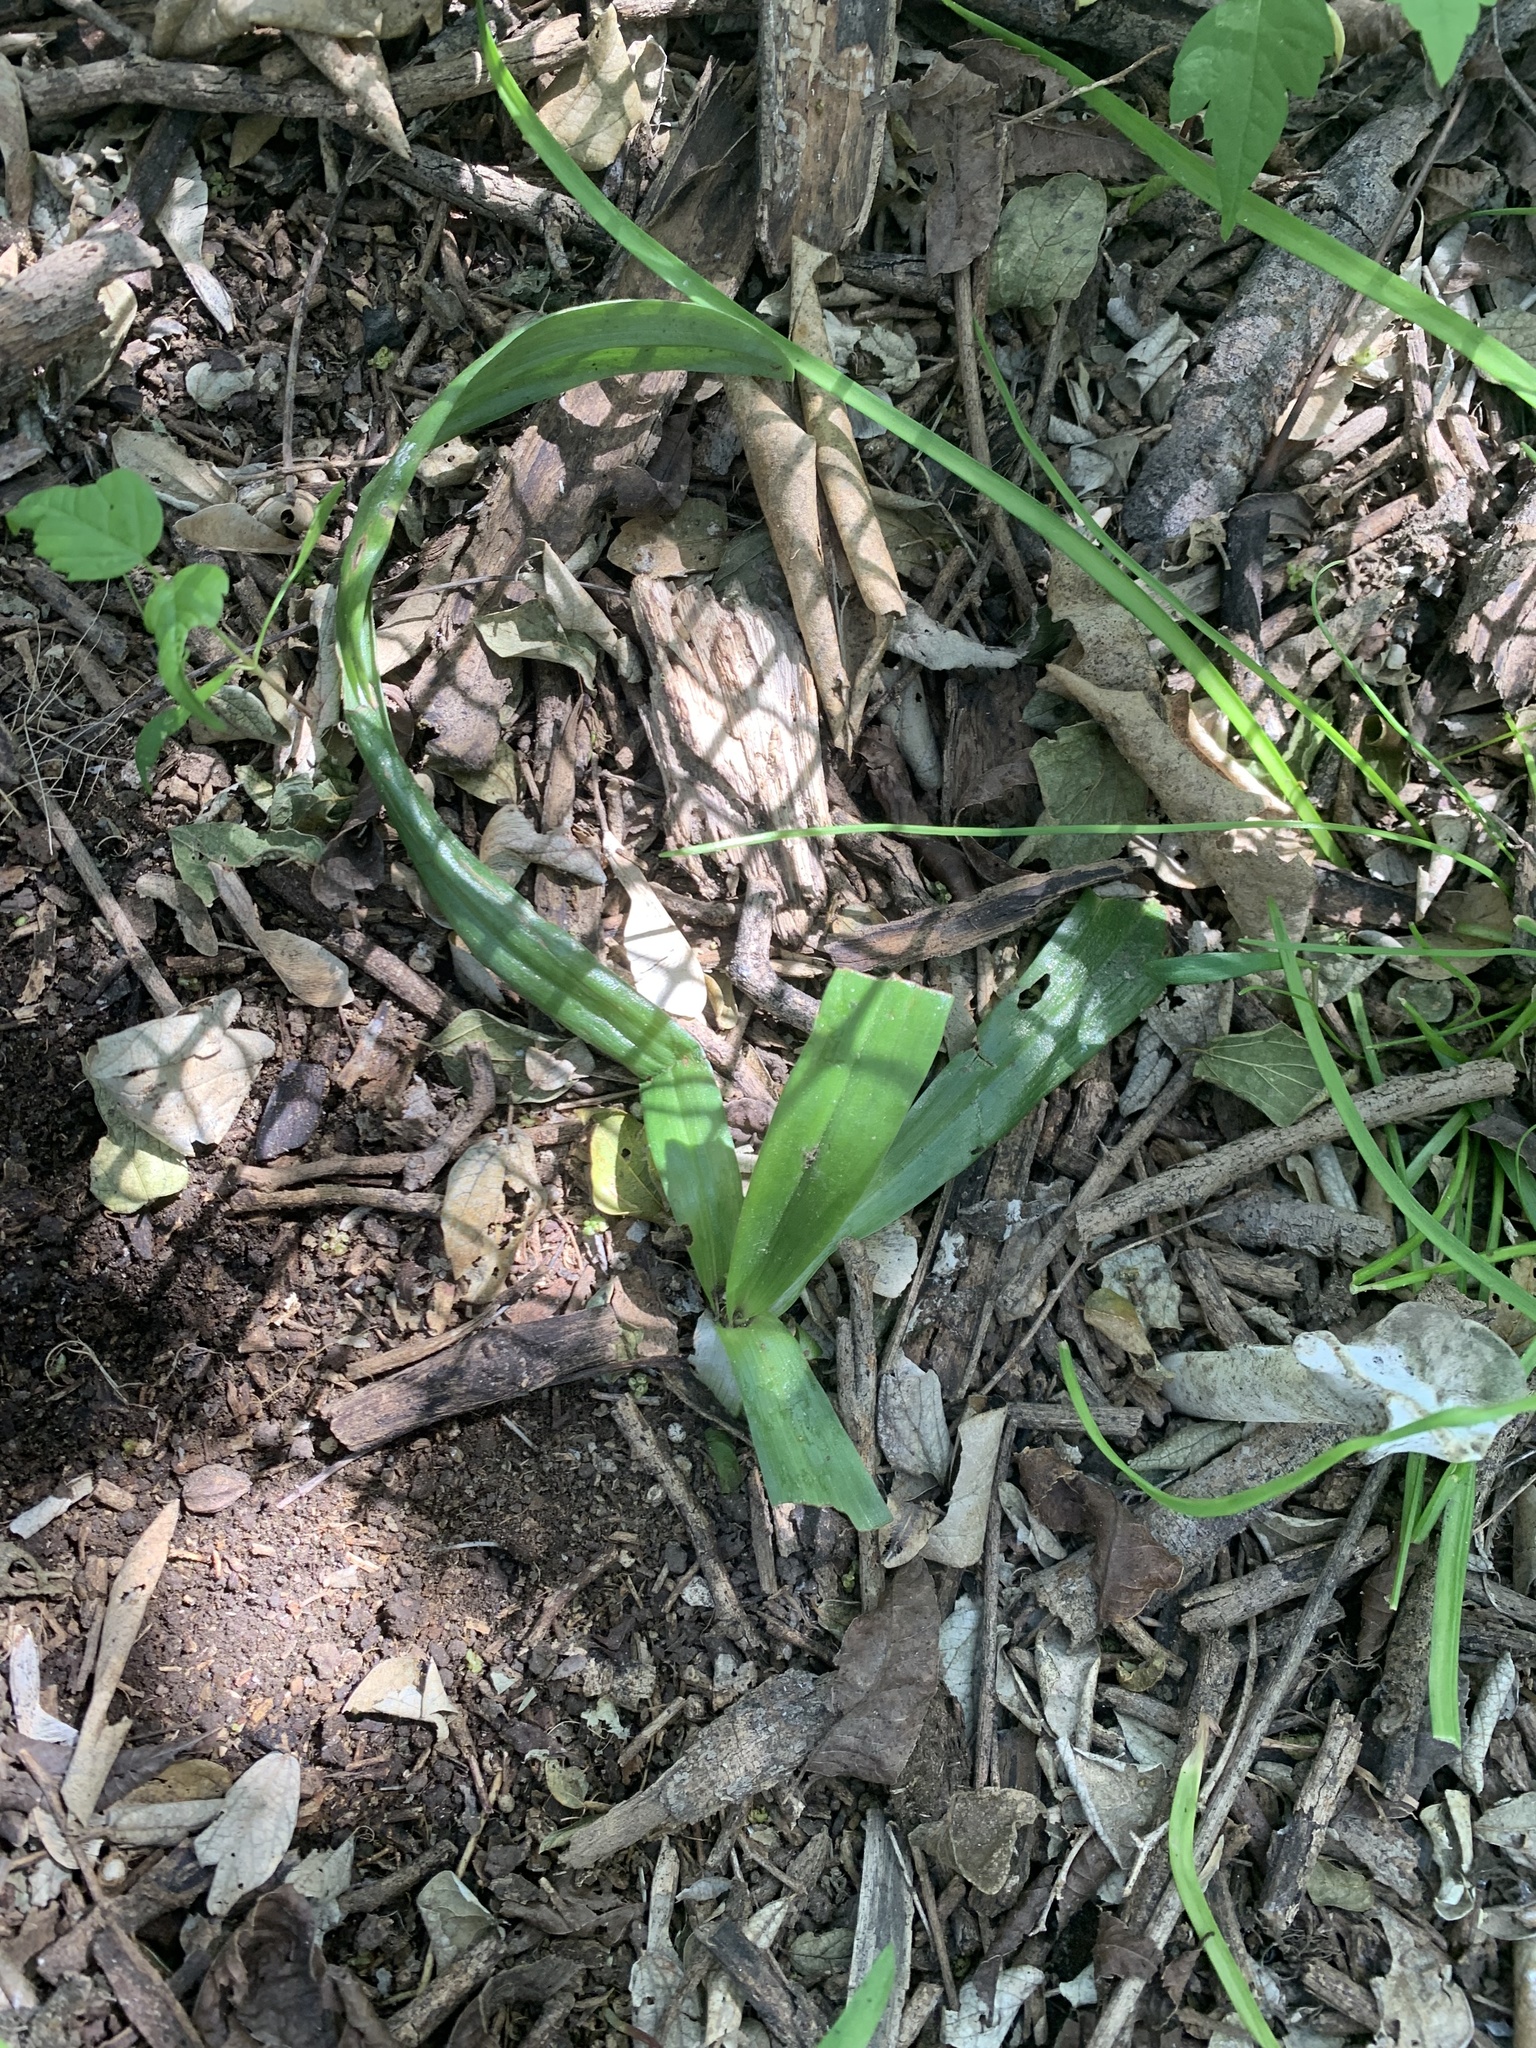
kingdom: Plantae
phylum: Tracheophyta
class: Liliopsida
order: Asparagales
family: Orchidaceae
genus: Chloraea
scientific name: Chloraea membranacea
